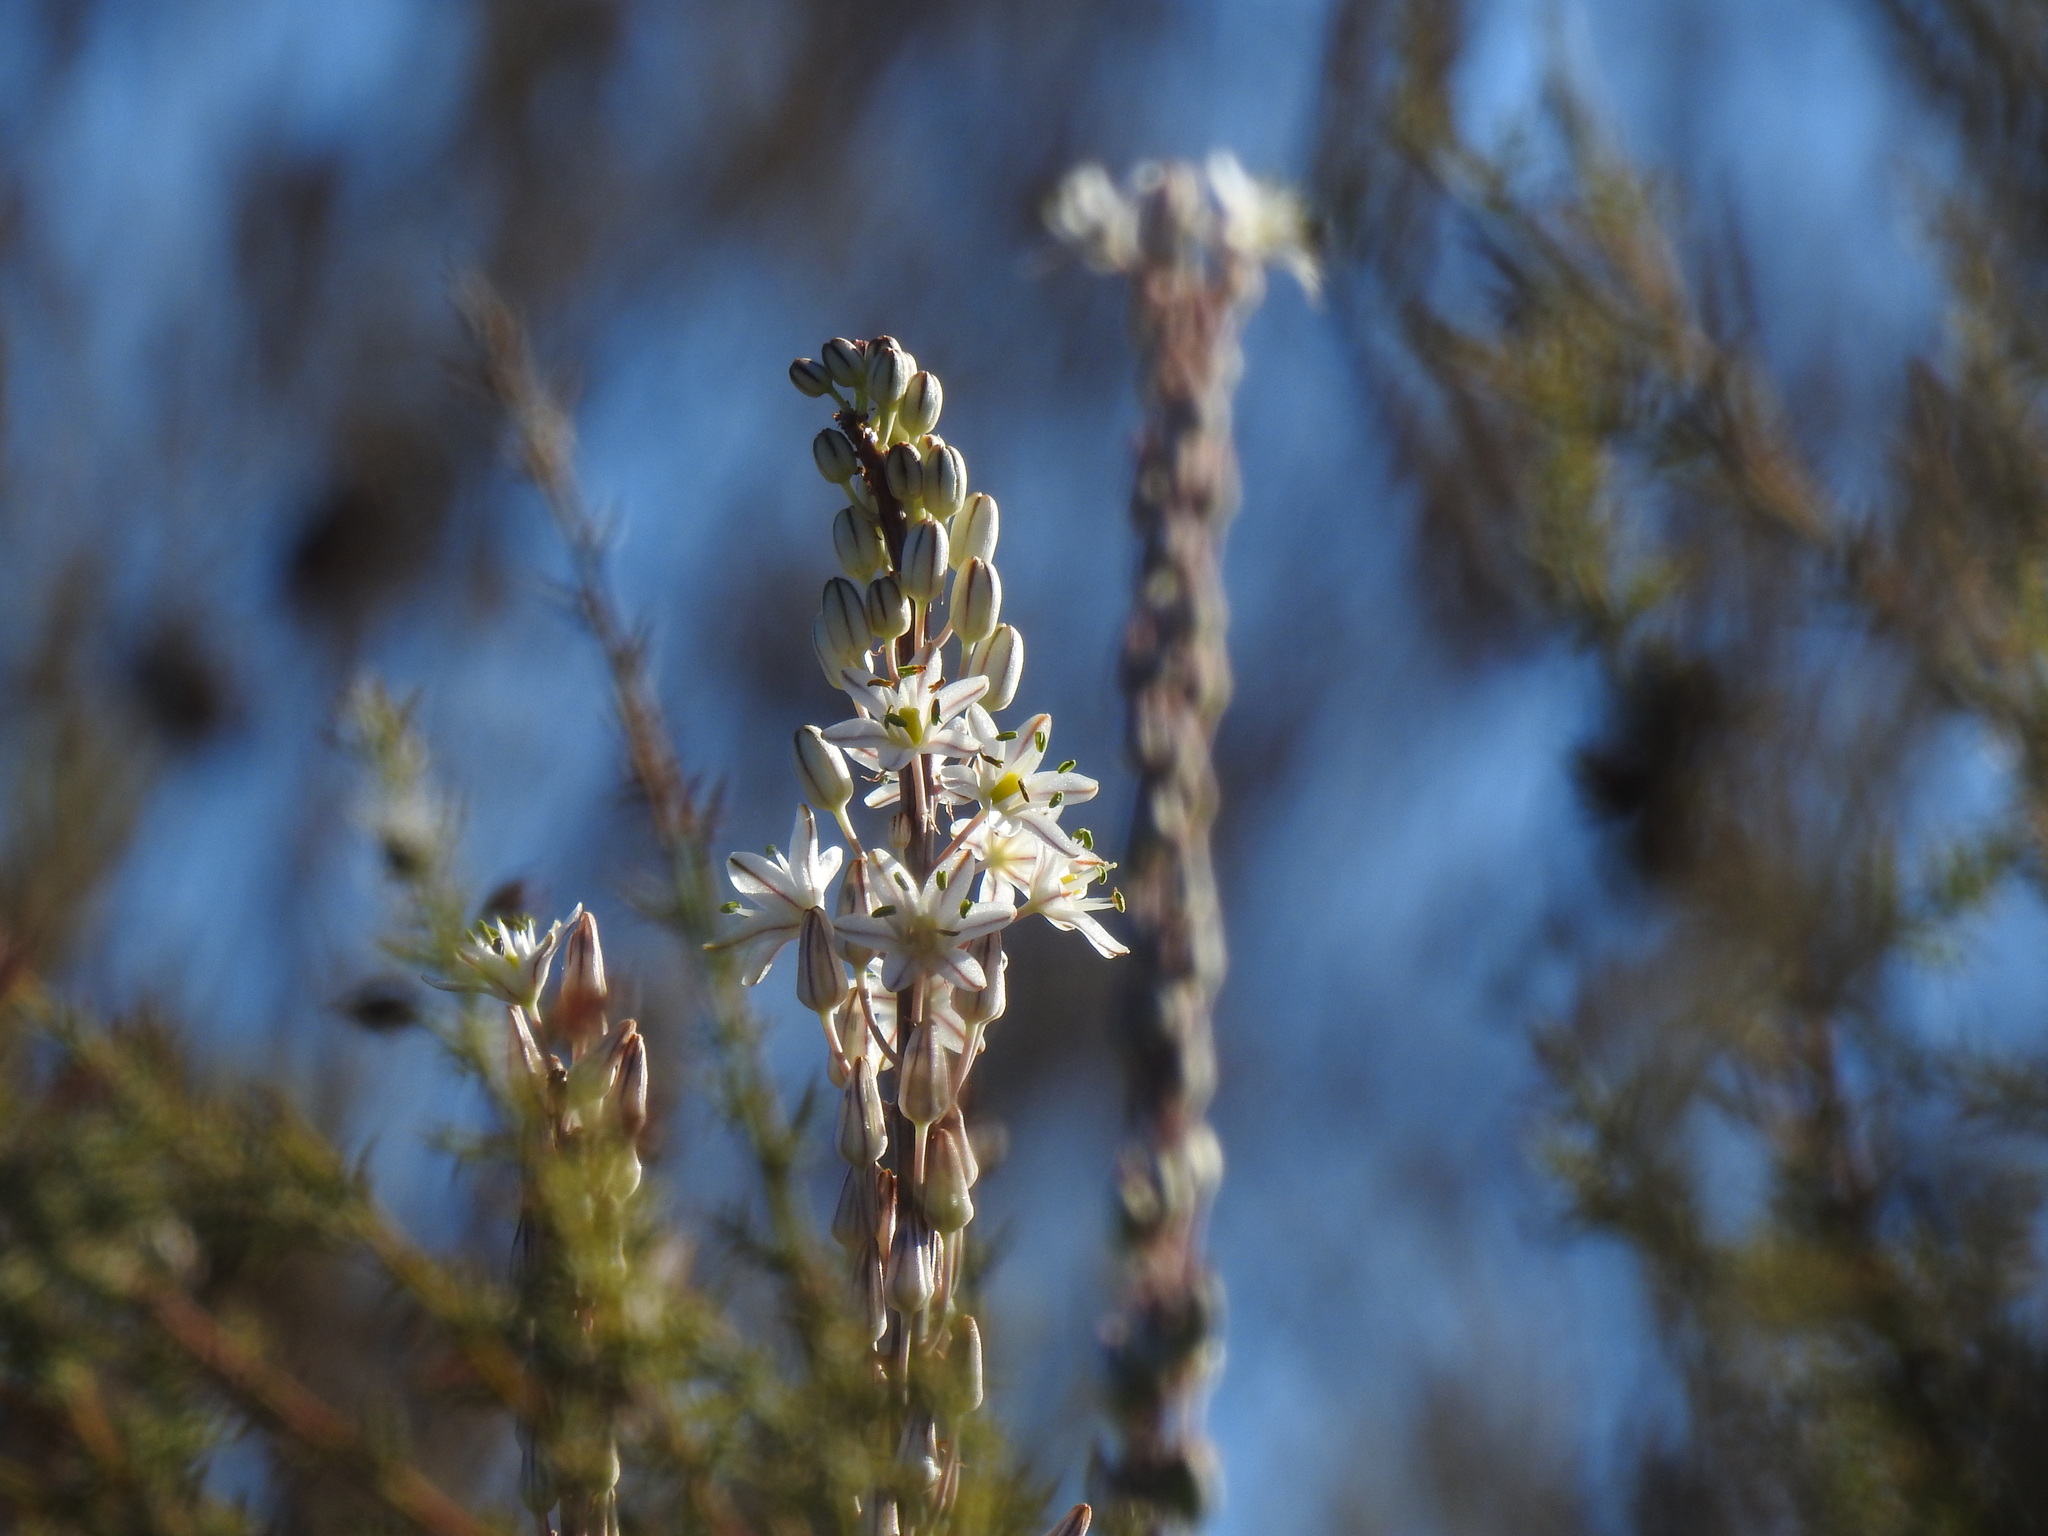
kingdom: Plantae
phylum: Tracheophyta
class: Liliopsida
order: Asparagales
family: Asparagaceae
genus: Drimia
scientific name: Drimia maritima
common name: Maritime squill
